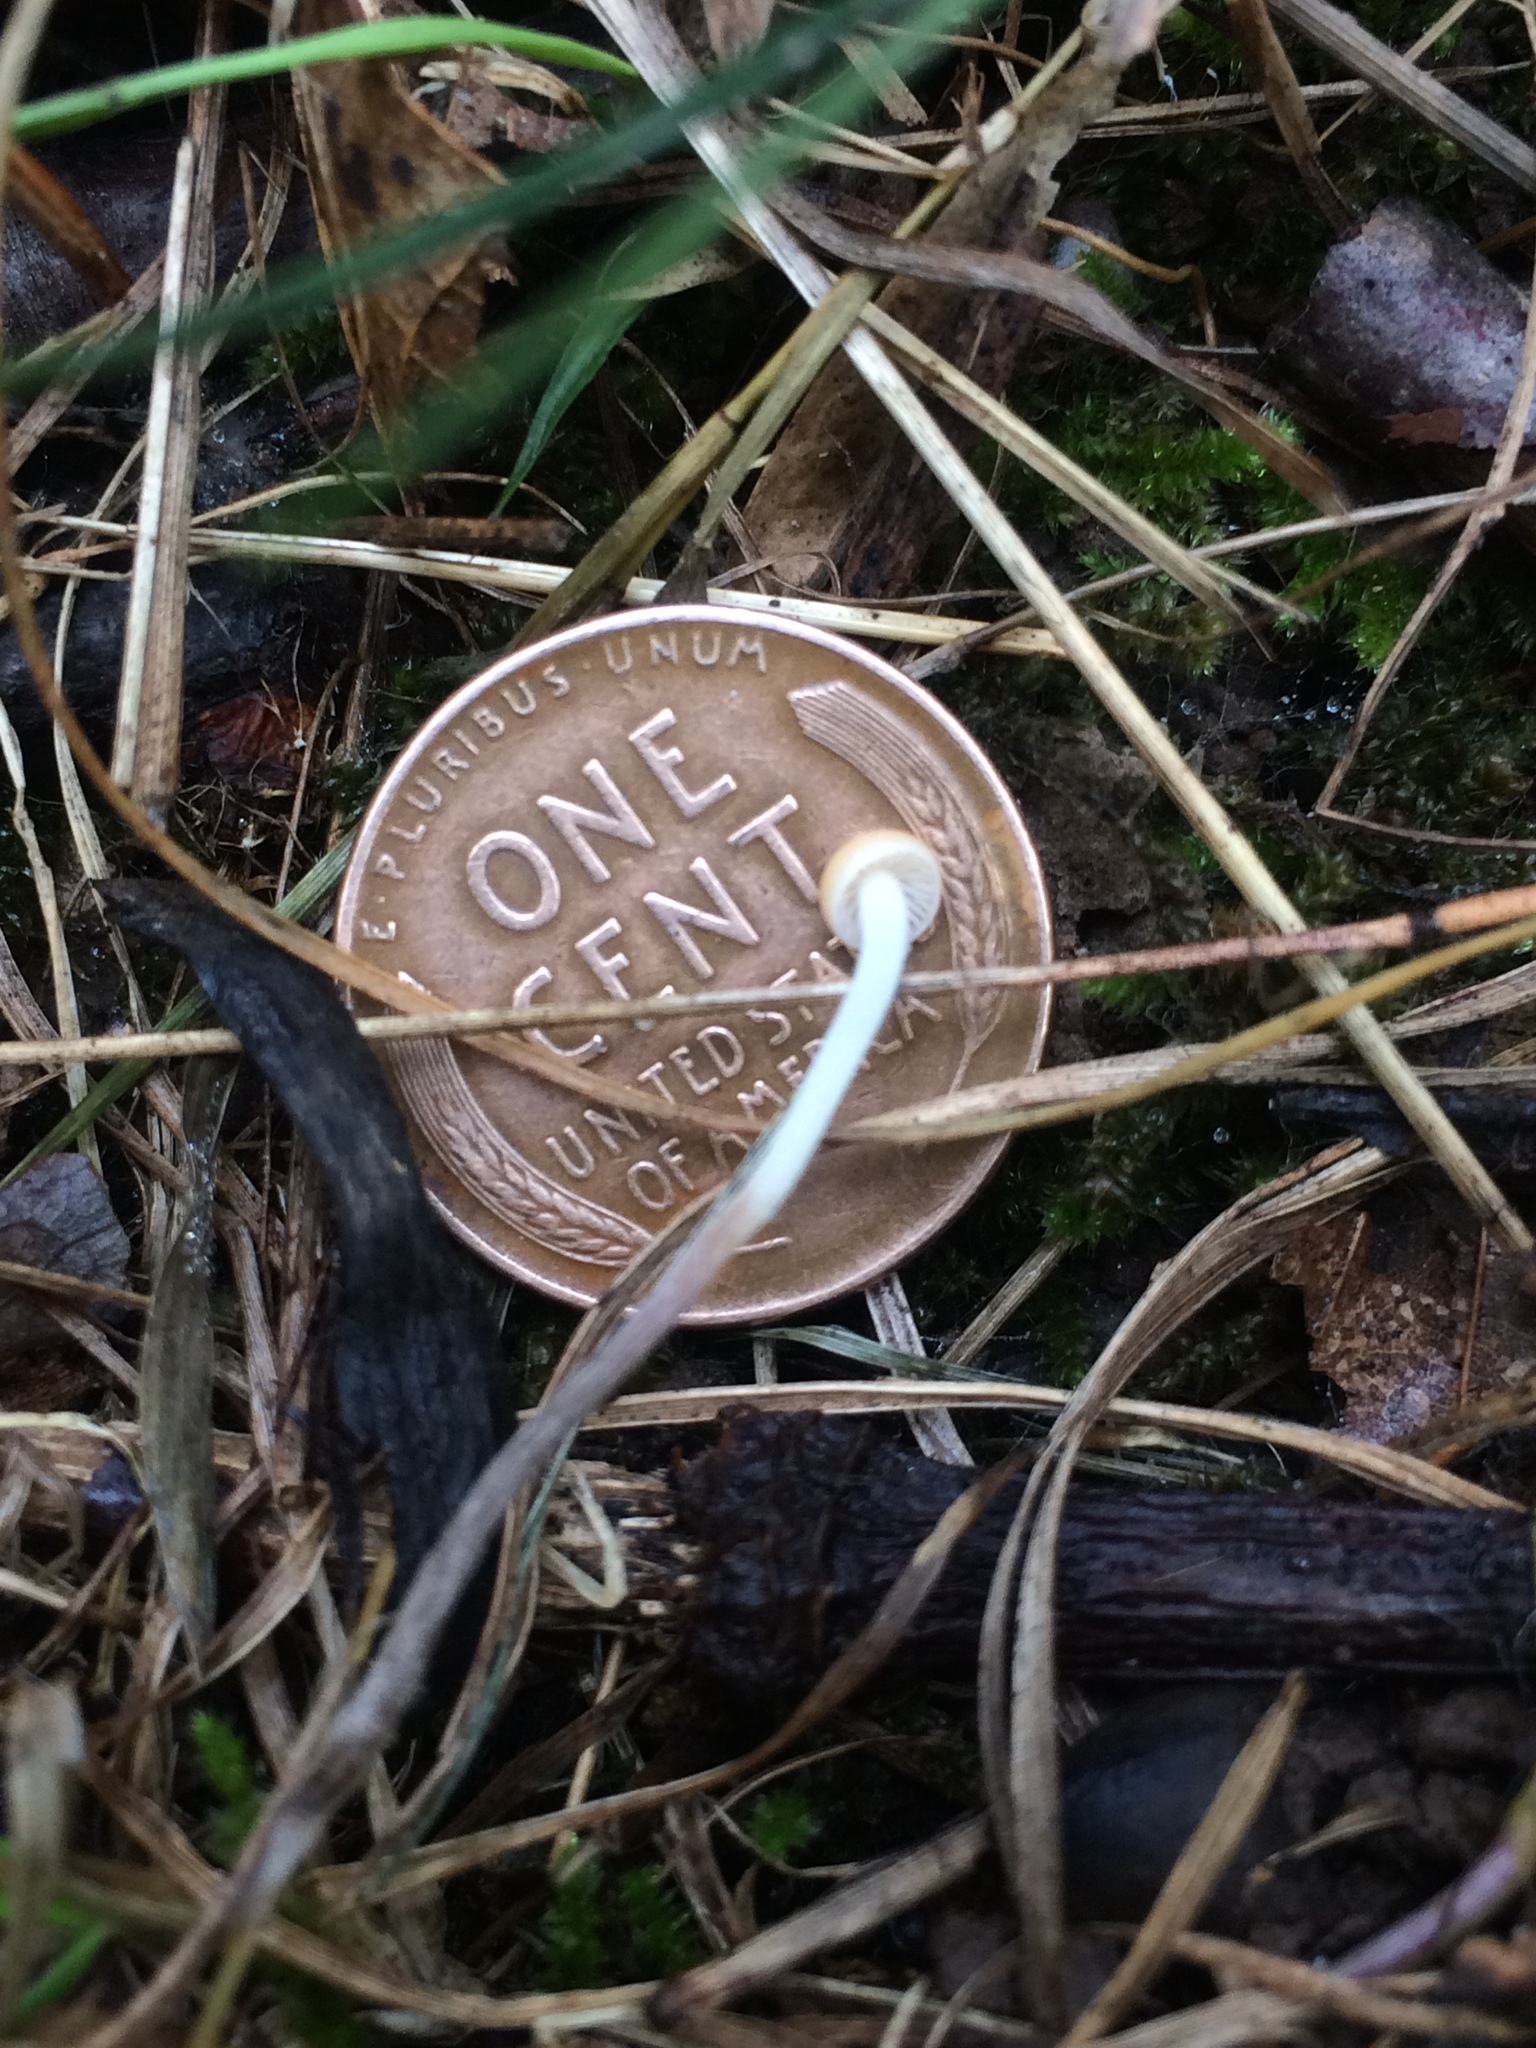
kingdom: Fungi
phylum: Basidiomycota
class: Agaricomycetes
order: Agaricales
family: Physalacriaceae
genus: Rhizomarasmius
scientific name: Rhizomarasmius pyrrhocephalus
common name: Hairy long stem marasmius
